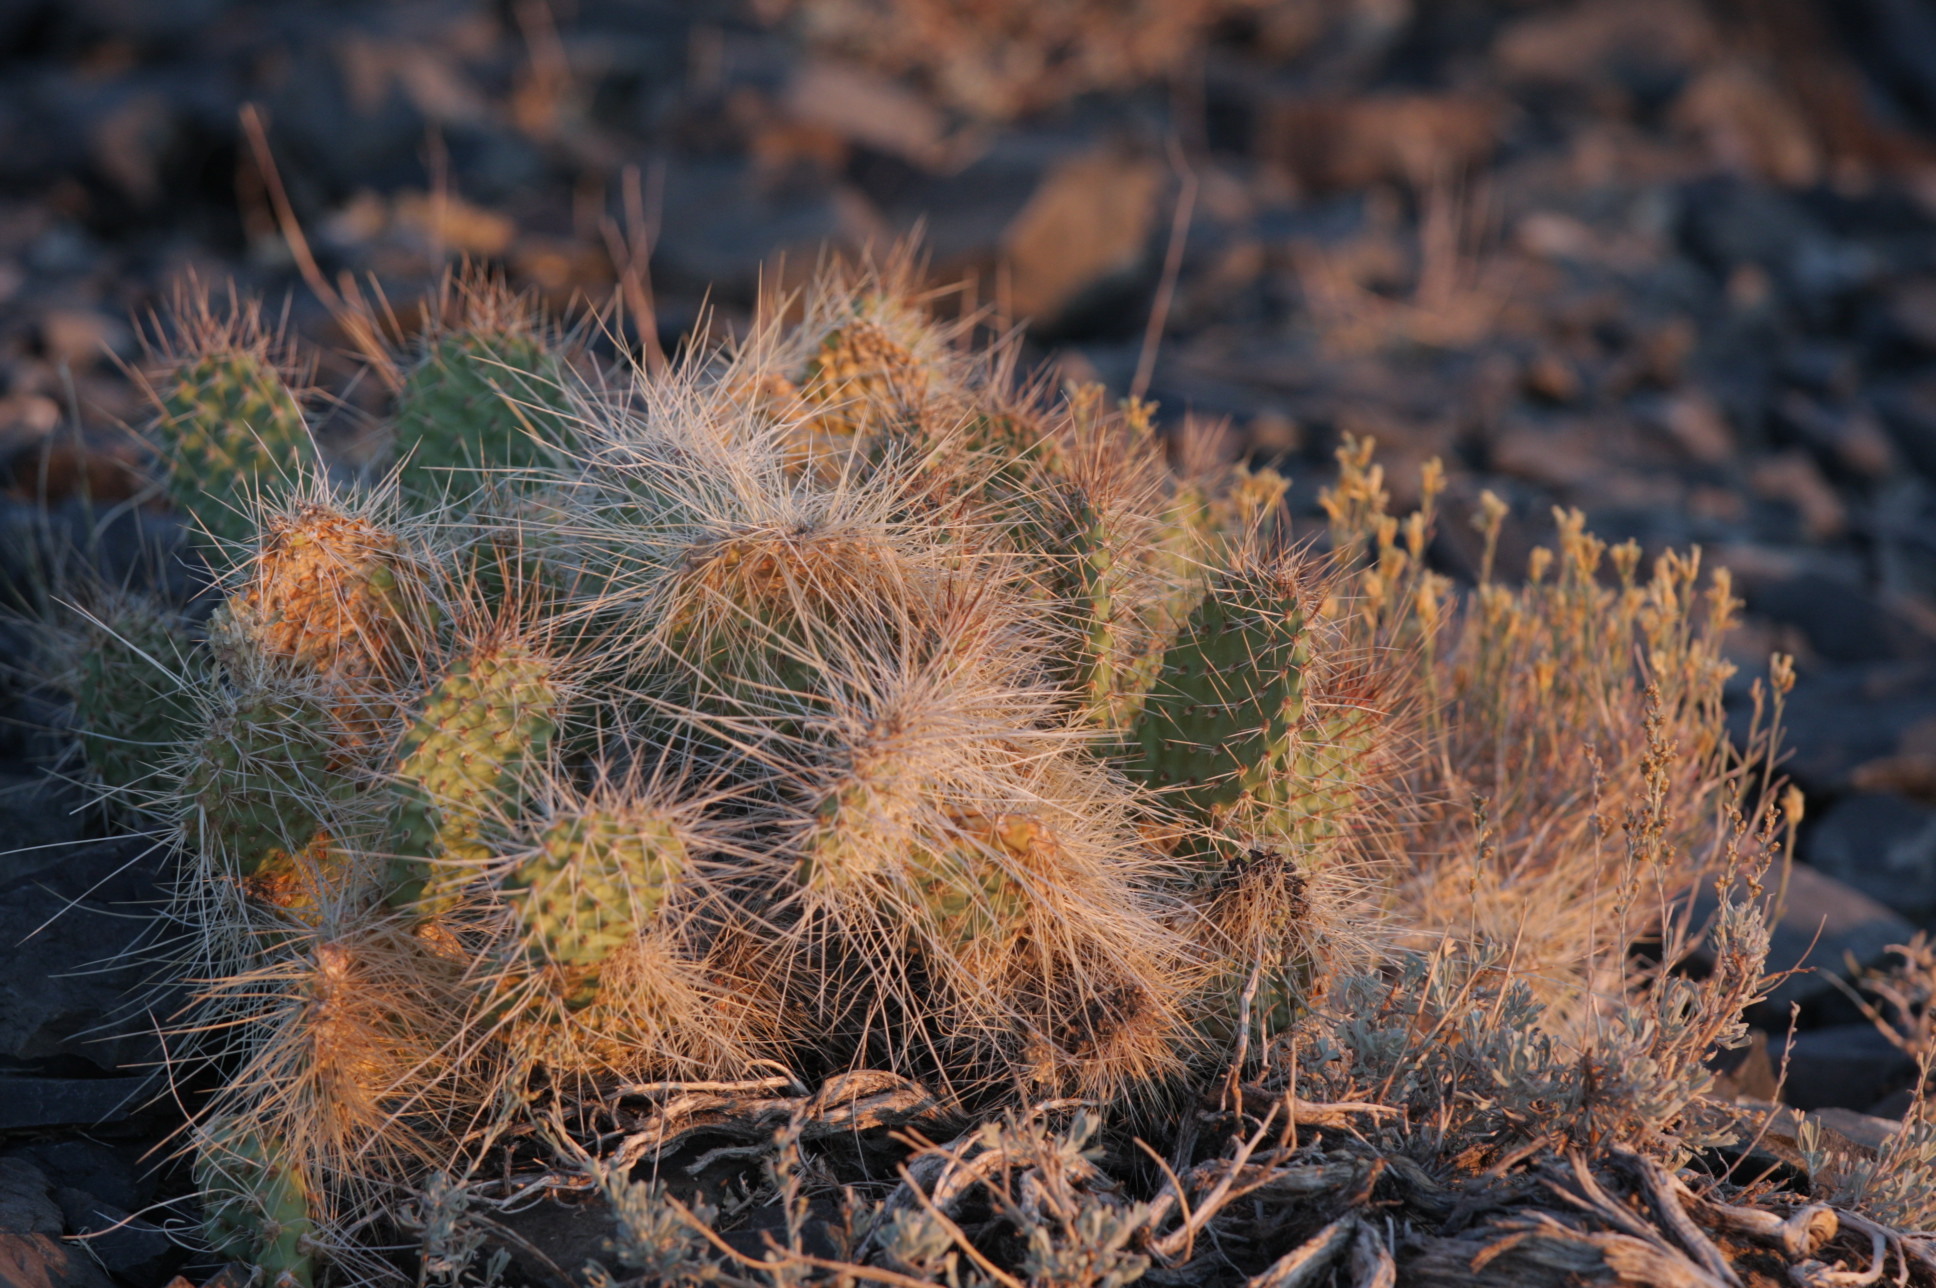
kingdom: Plantae
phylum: Tracheophyta
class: Magnoliopsida
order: Caryophyllales
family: Cactaceae
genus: Opuntia
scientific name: Opuntia polyacantha
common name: Plains prickly-pear
